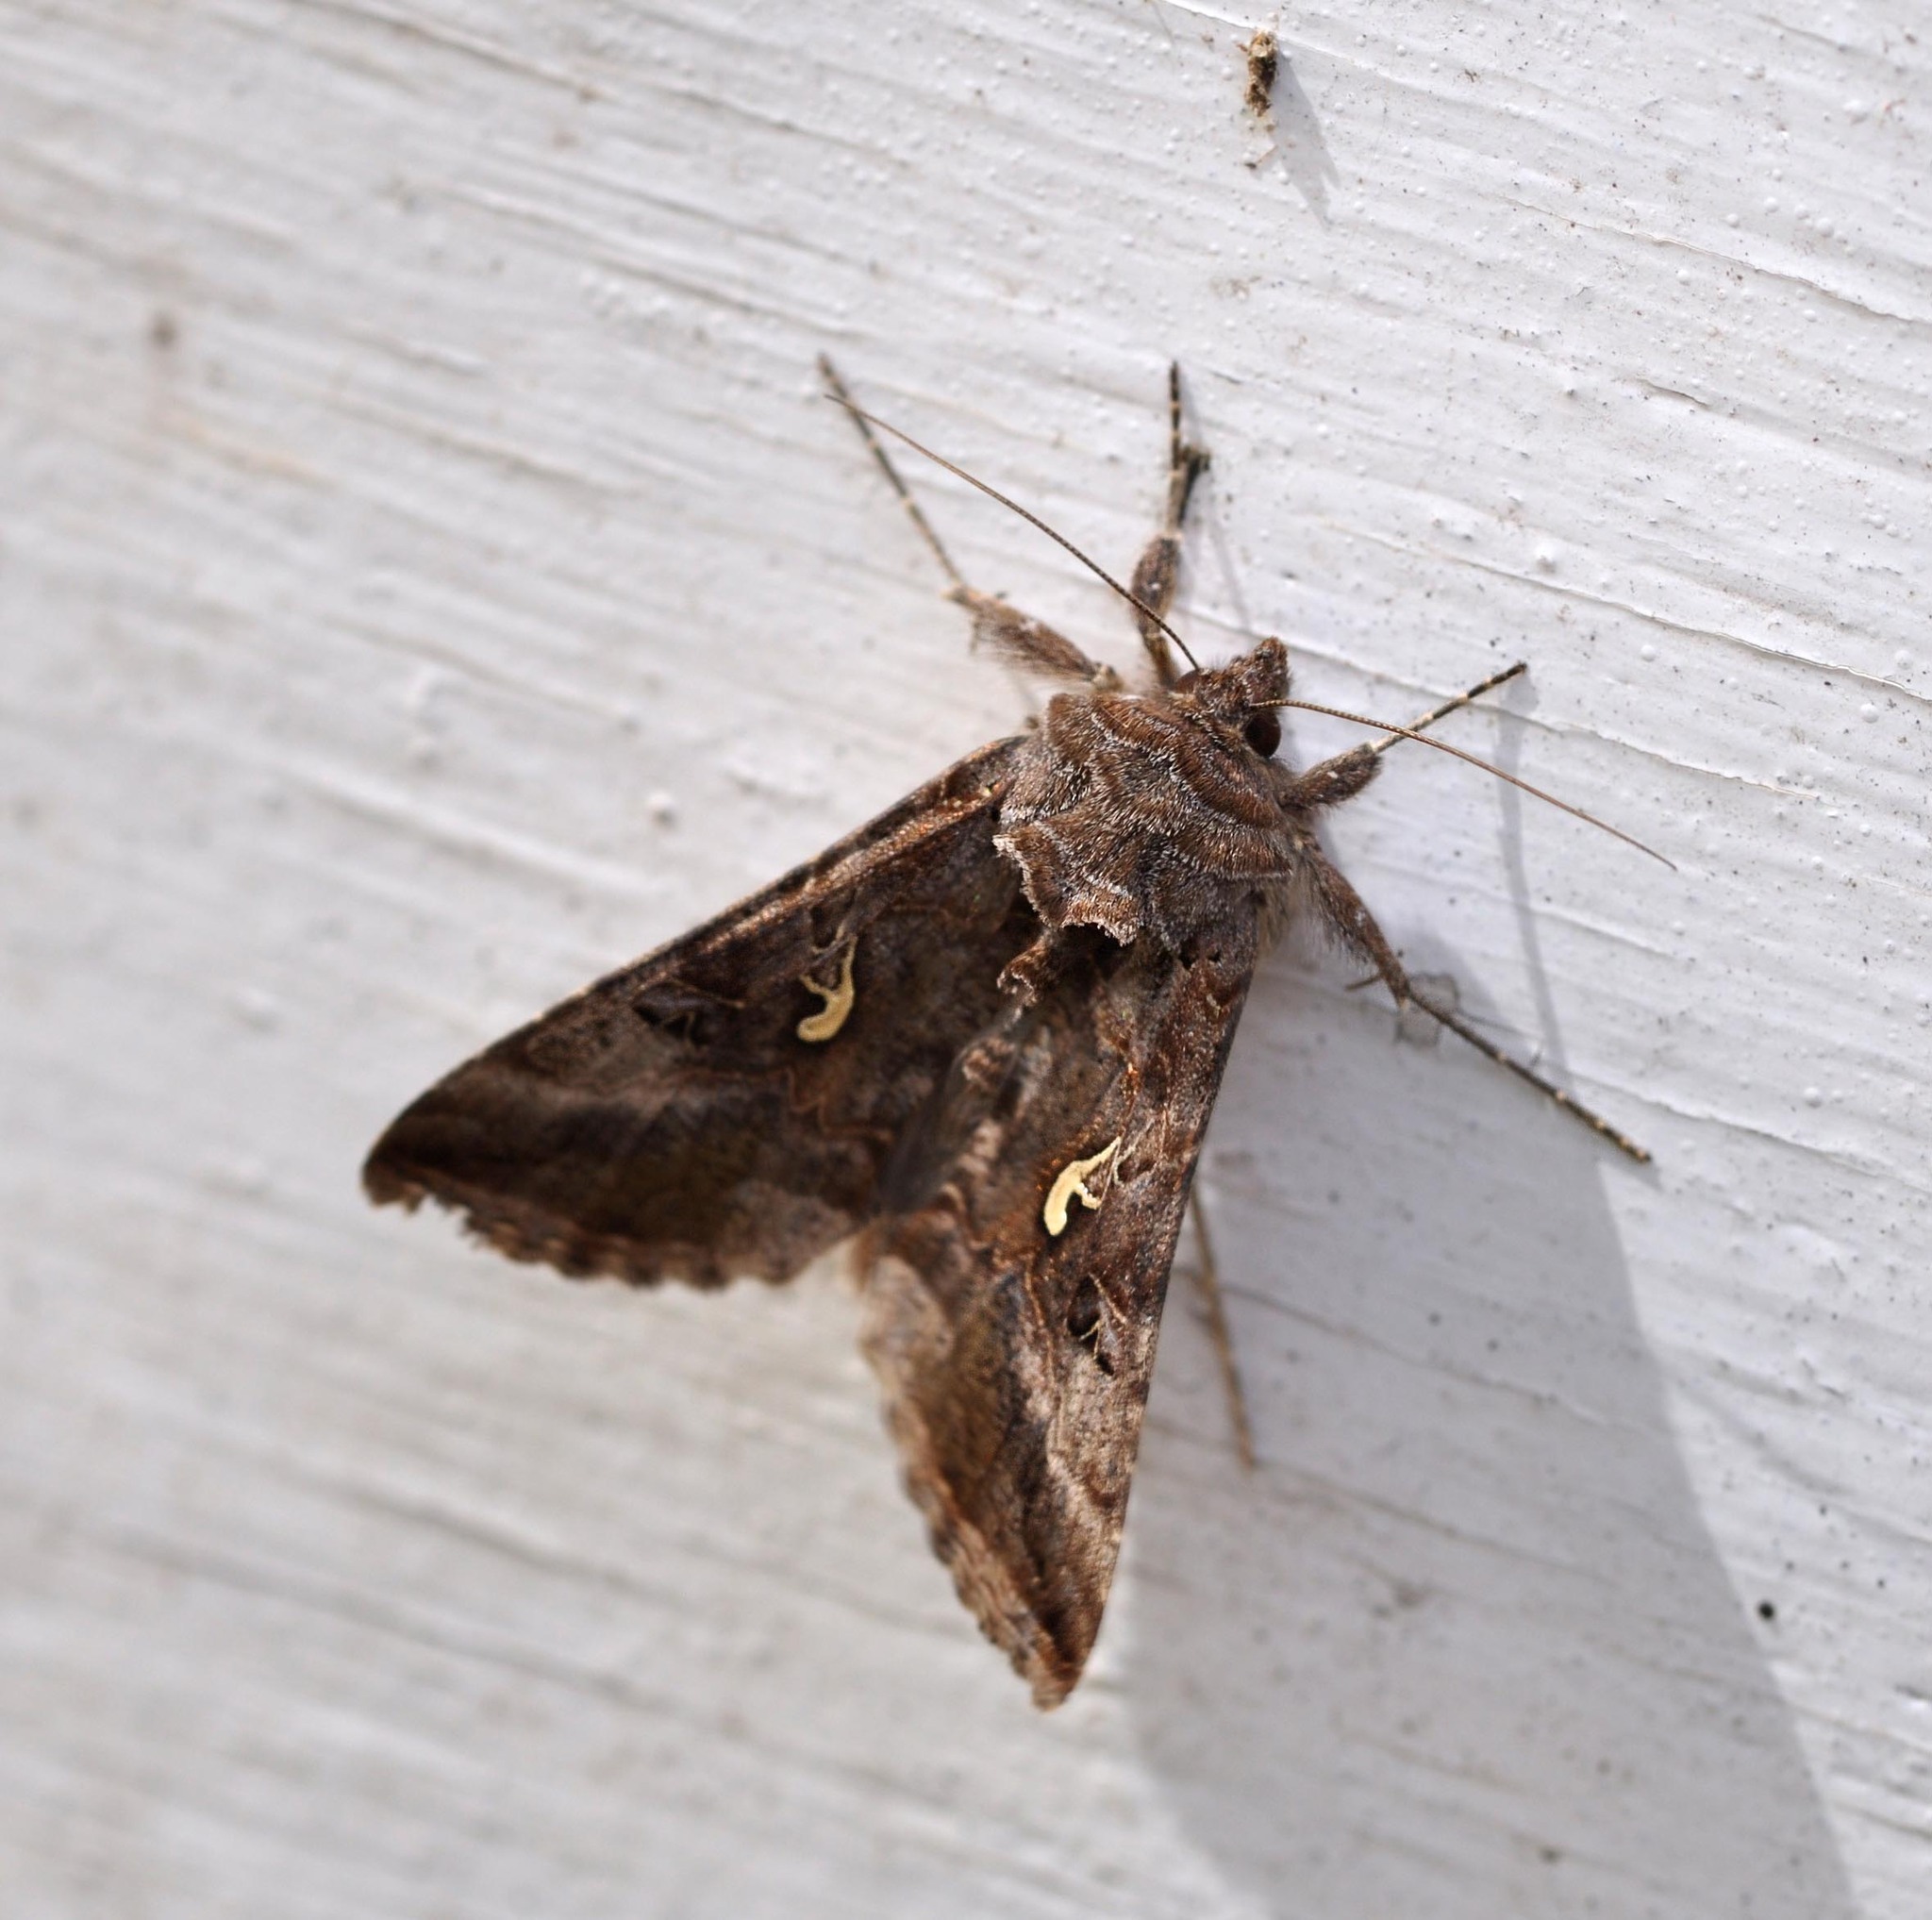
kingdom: Animalia
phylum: Arthropoda
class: Insecta
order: Lepidoptera
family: Noctuidae
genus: Autographa
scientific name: Autographa gamma
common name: Silver y
